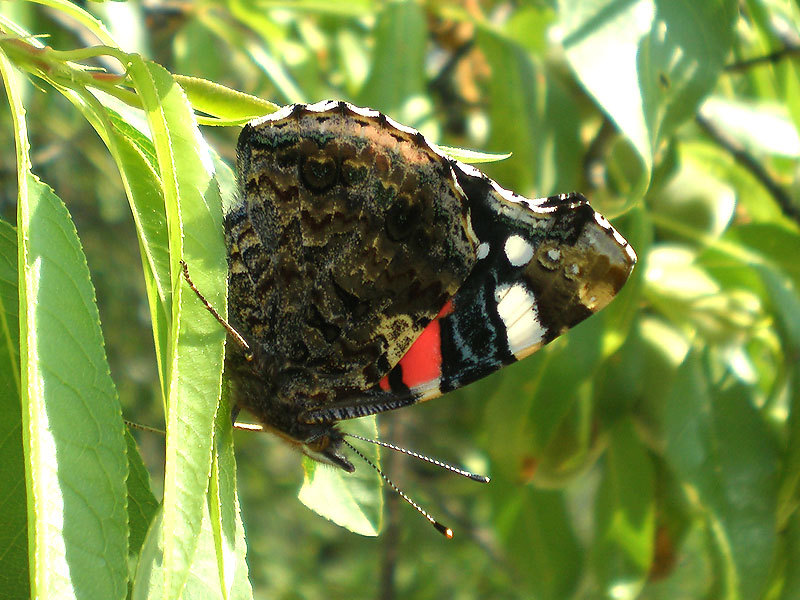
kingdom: Animalia
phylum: Arthropoda
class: Insecta
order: Lepidoptera
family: Nymphalidae
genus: Vanessa
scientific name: Vanessa atalanta
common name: Red admiral
